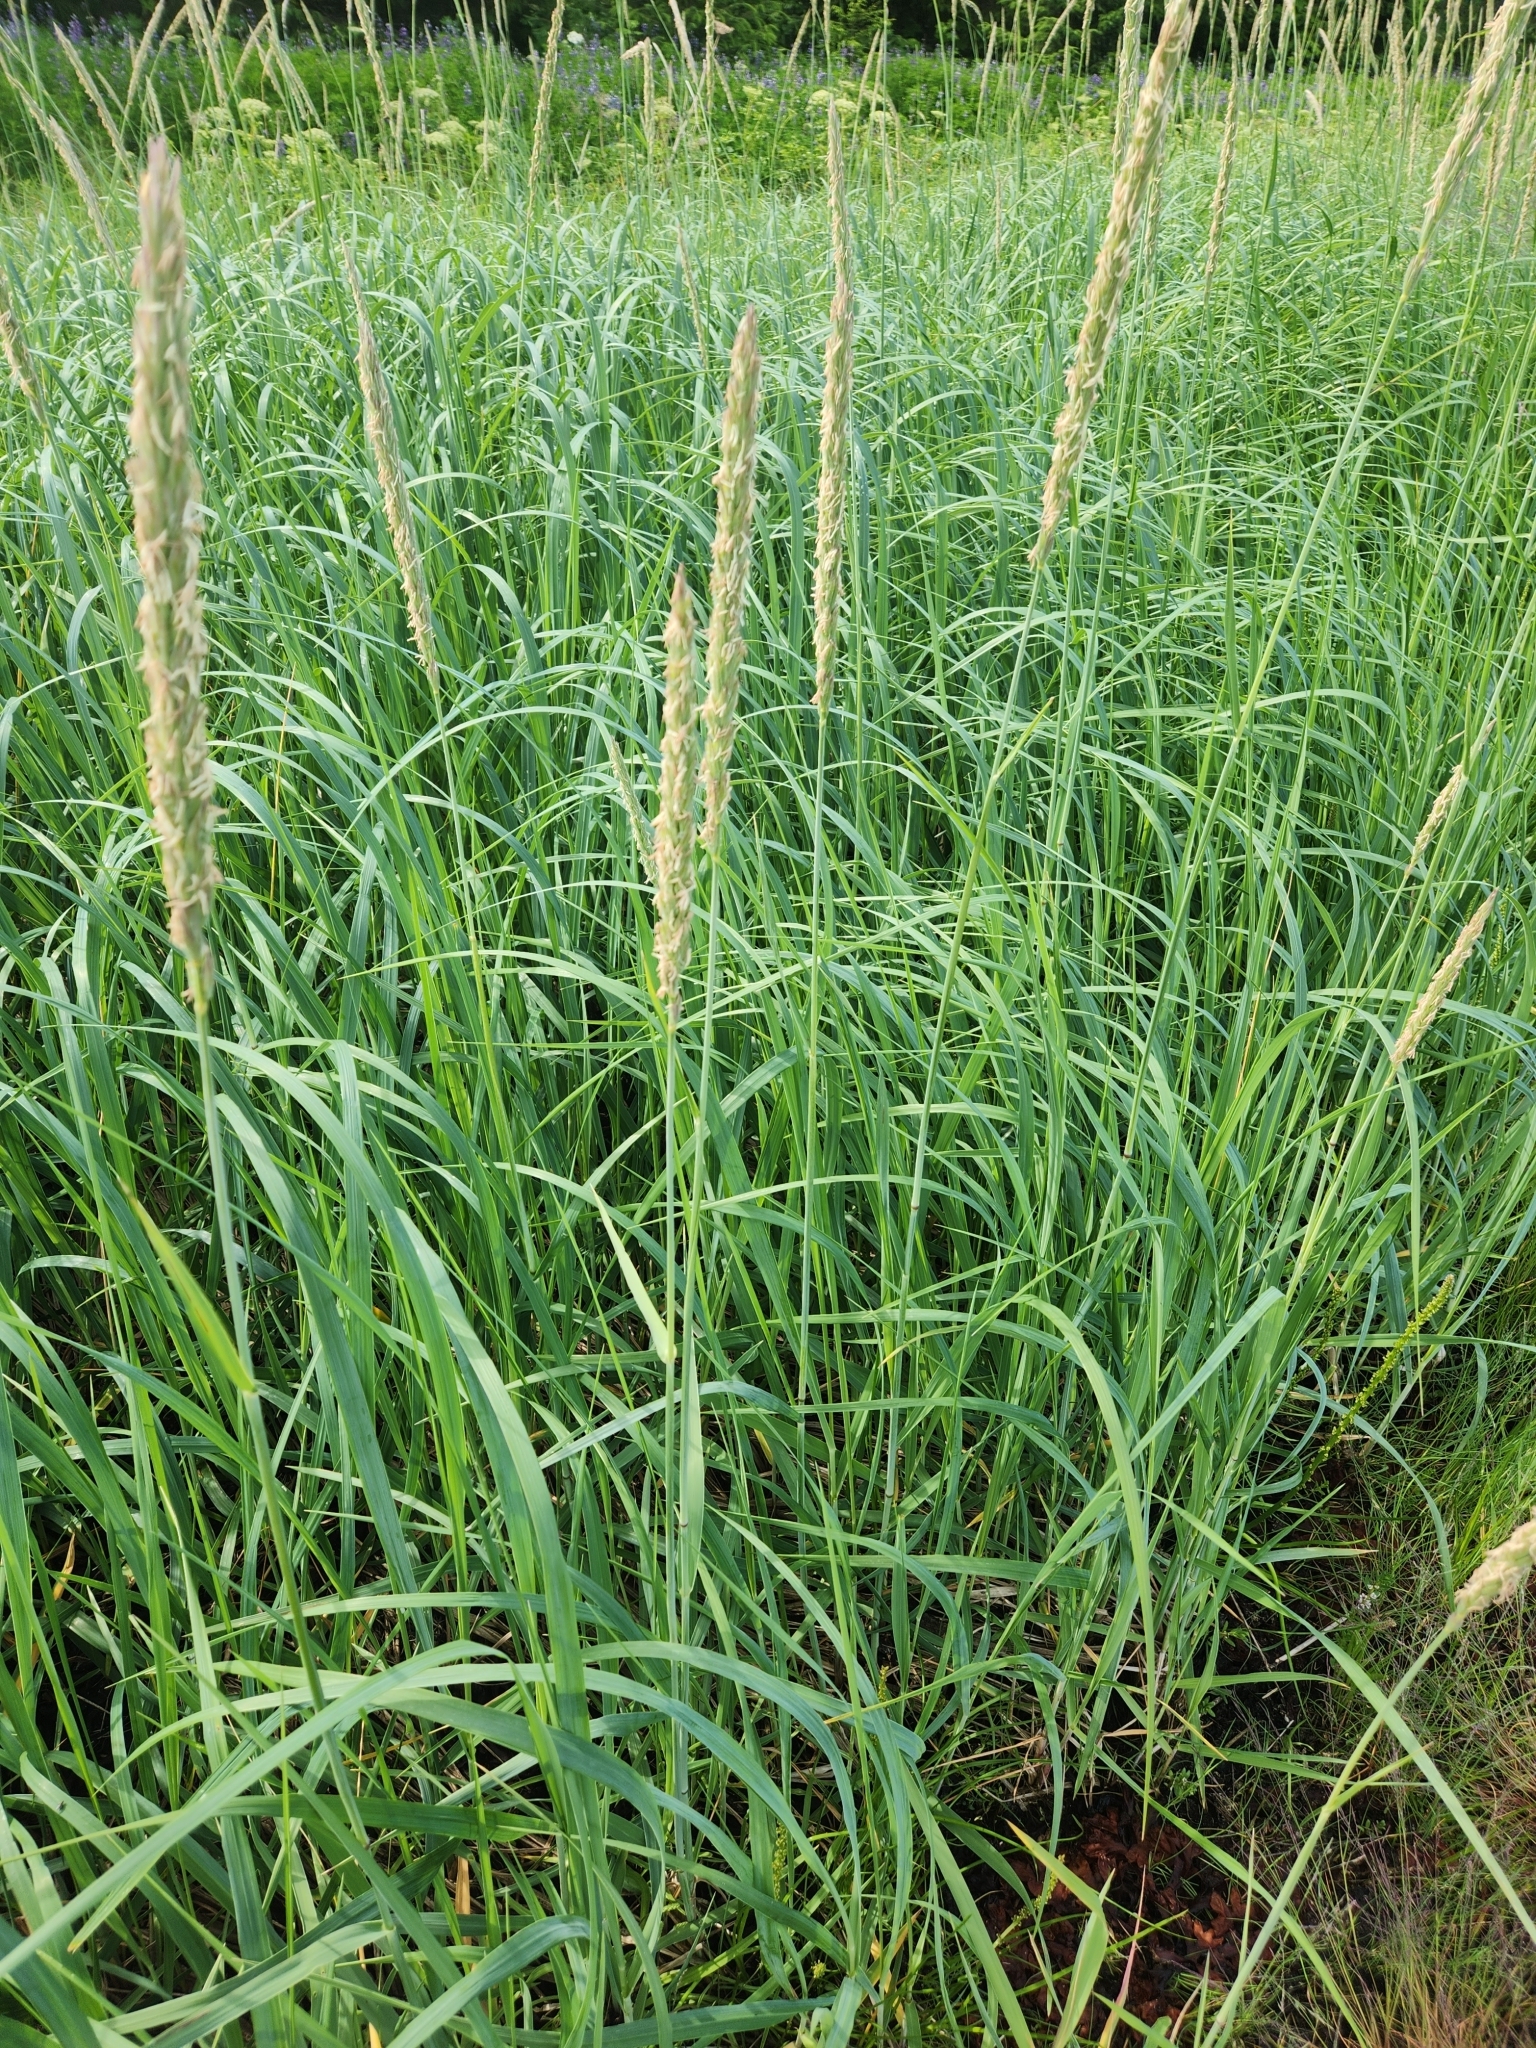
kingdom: Plantae
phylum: Tracheophyta
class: Liliopsida
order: Poales
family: Poaceae
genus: Leymus
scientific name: Leymus mollis
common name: American dune grass
